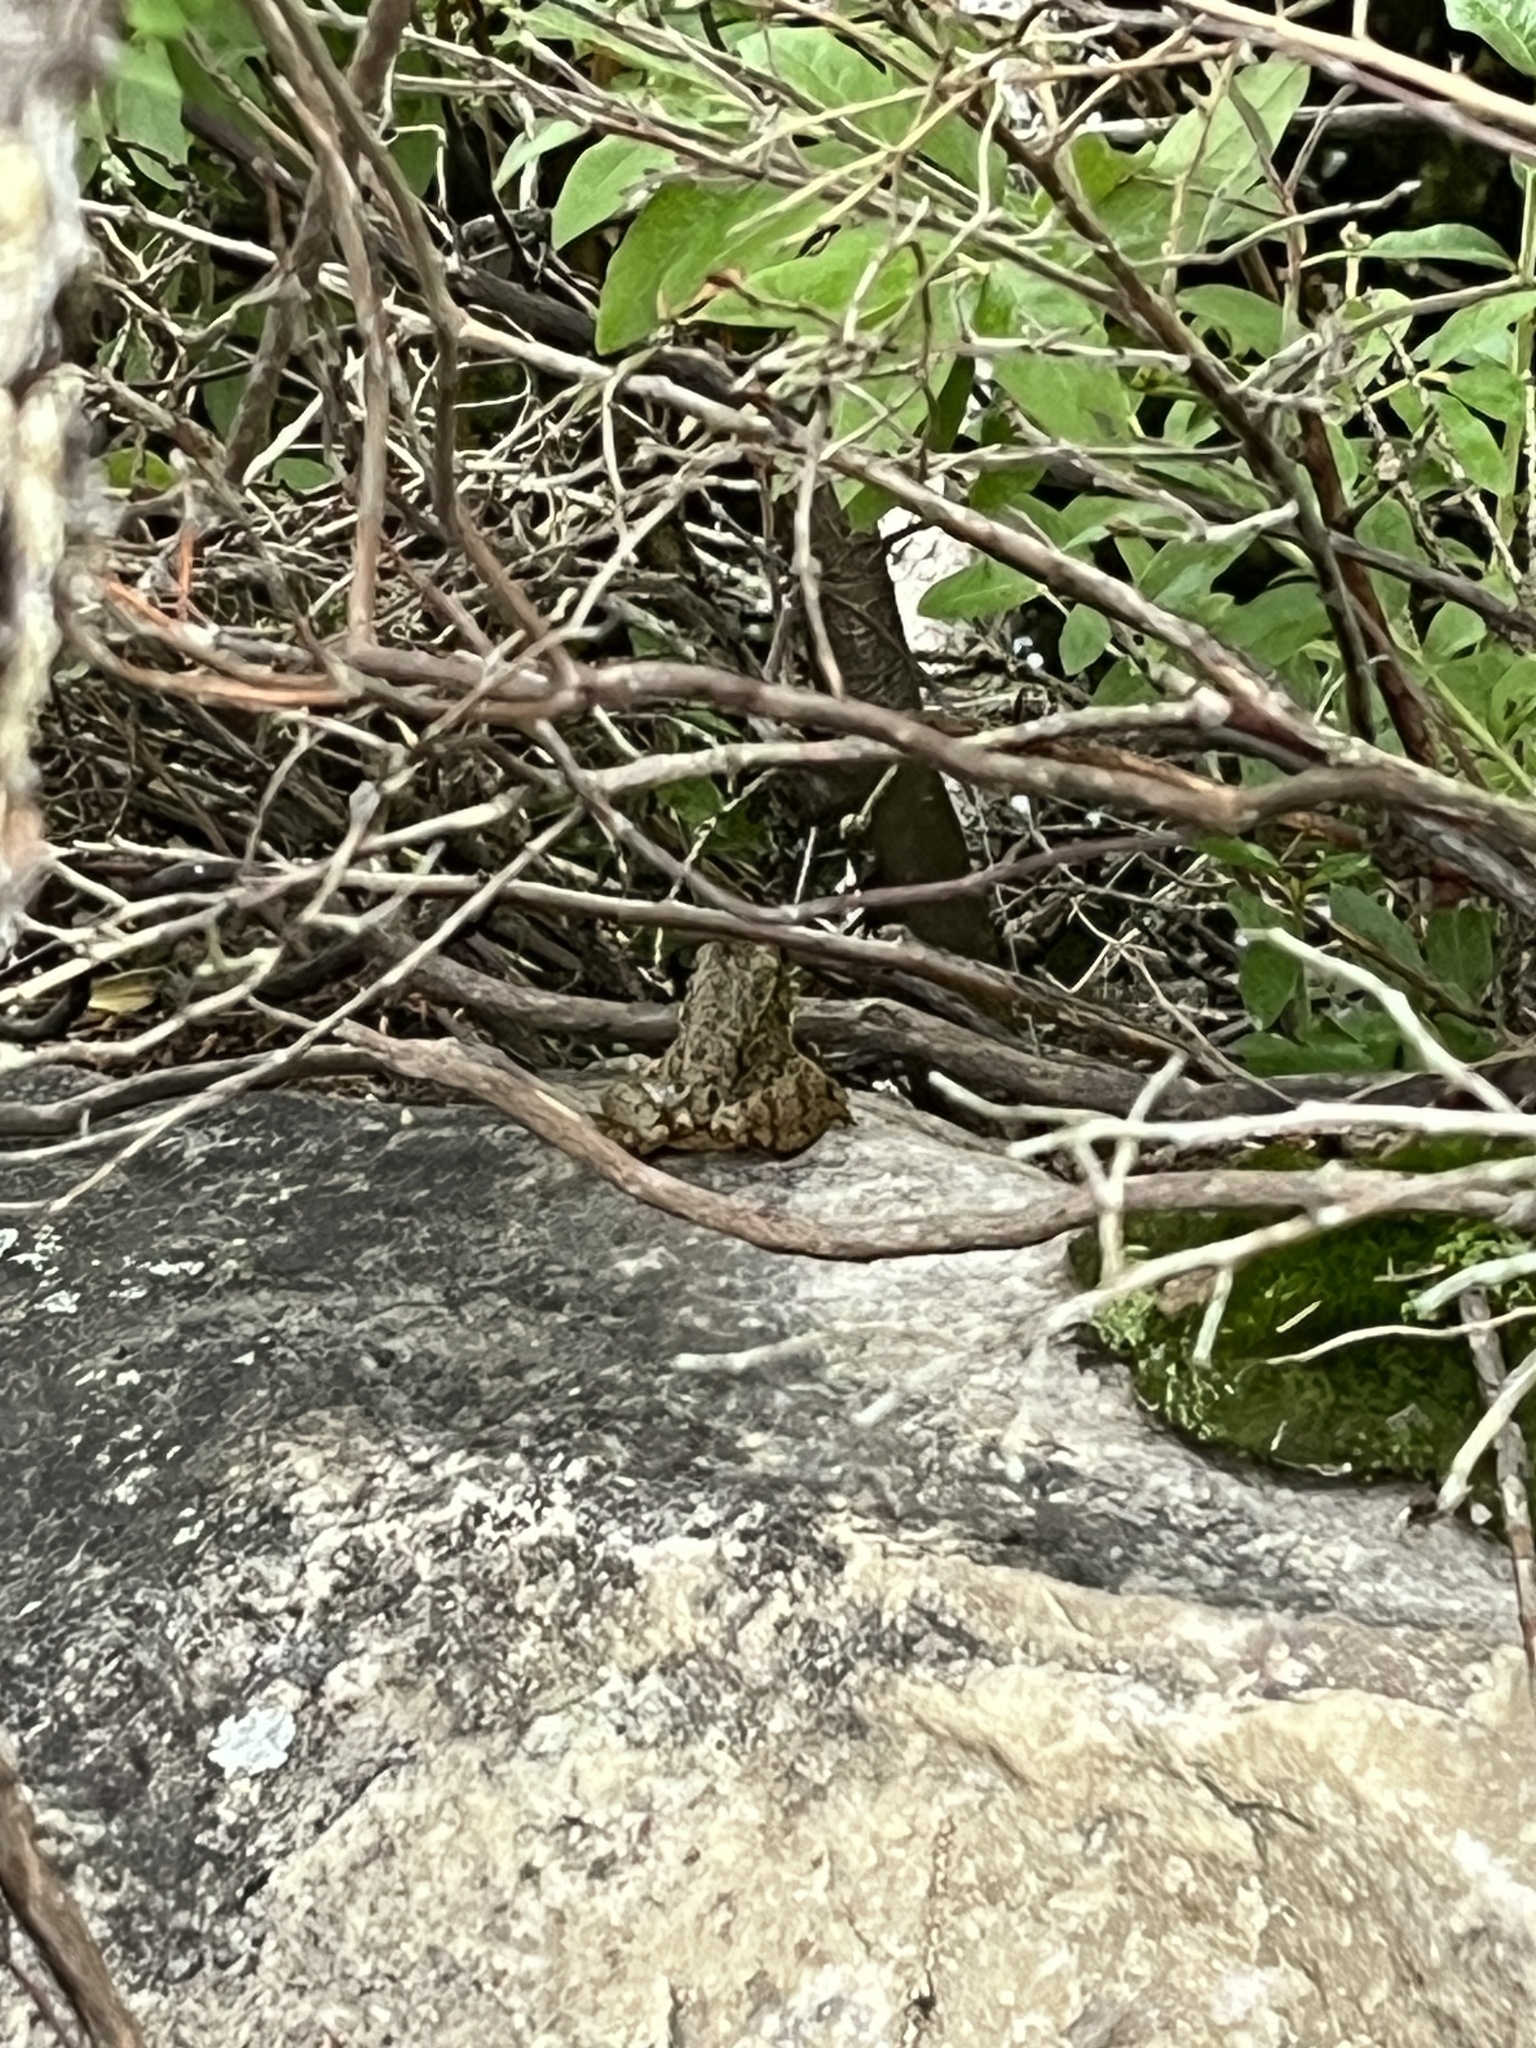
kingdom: Animalia
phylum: Chordata
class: Amphibia
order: Anura
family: Ranidae
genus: Lithobates
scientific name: Lithobates clamitans
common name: Green frog
